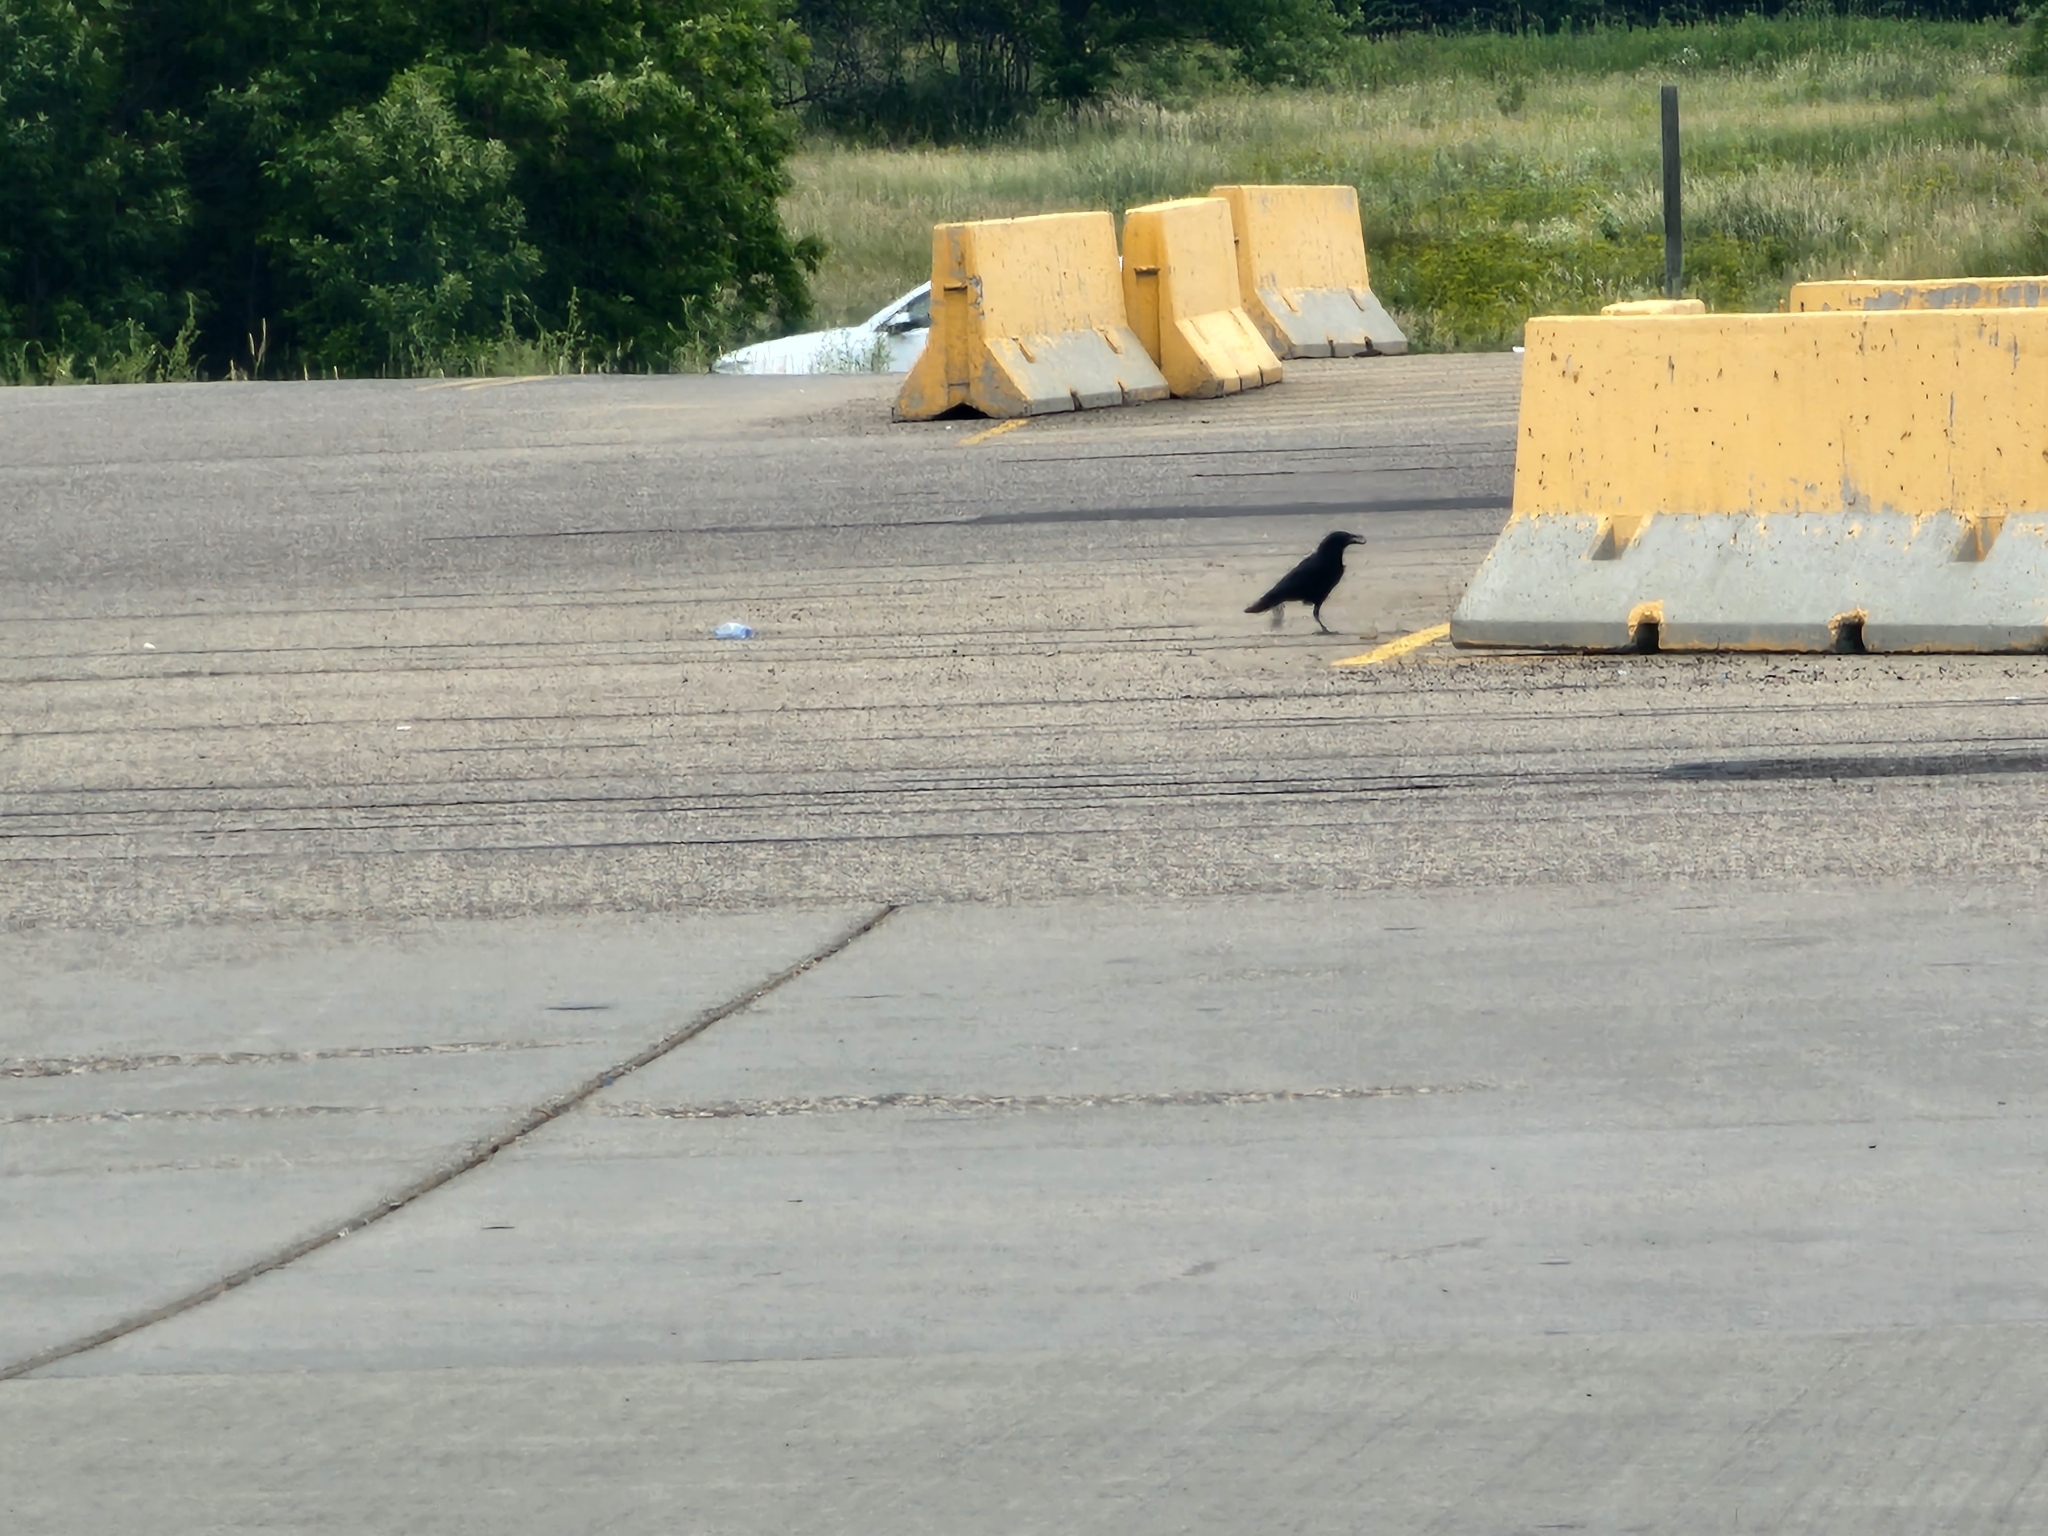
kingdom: Animalia
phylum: Chordata
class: Aves
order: Passeriformes
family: Corvidae
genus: Corvus
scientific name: Corvus brachyrhynchos
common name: American crow
